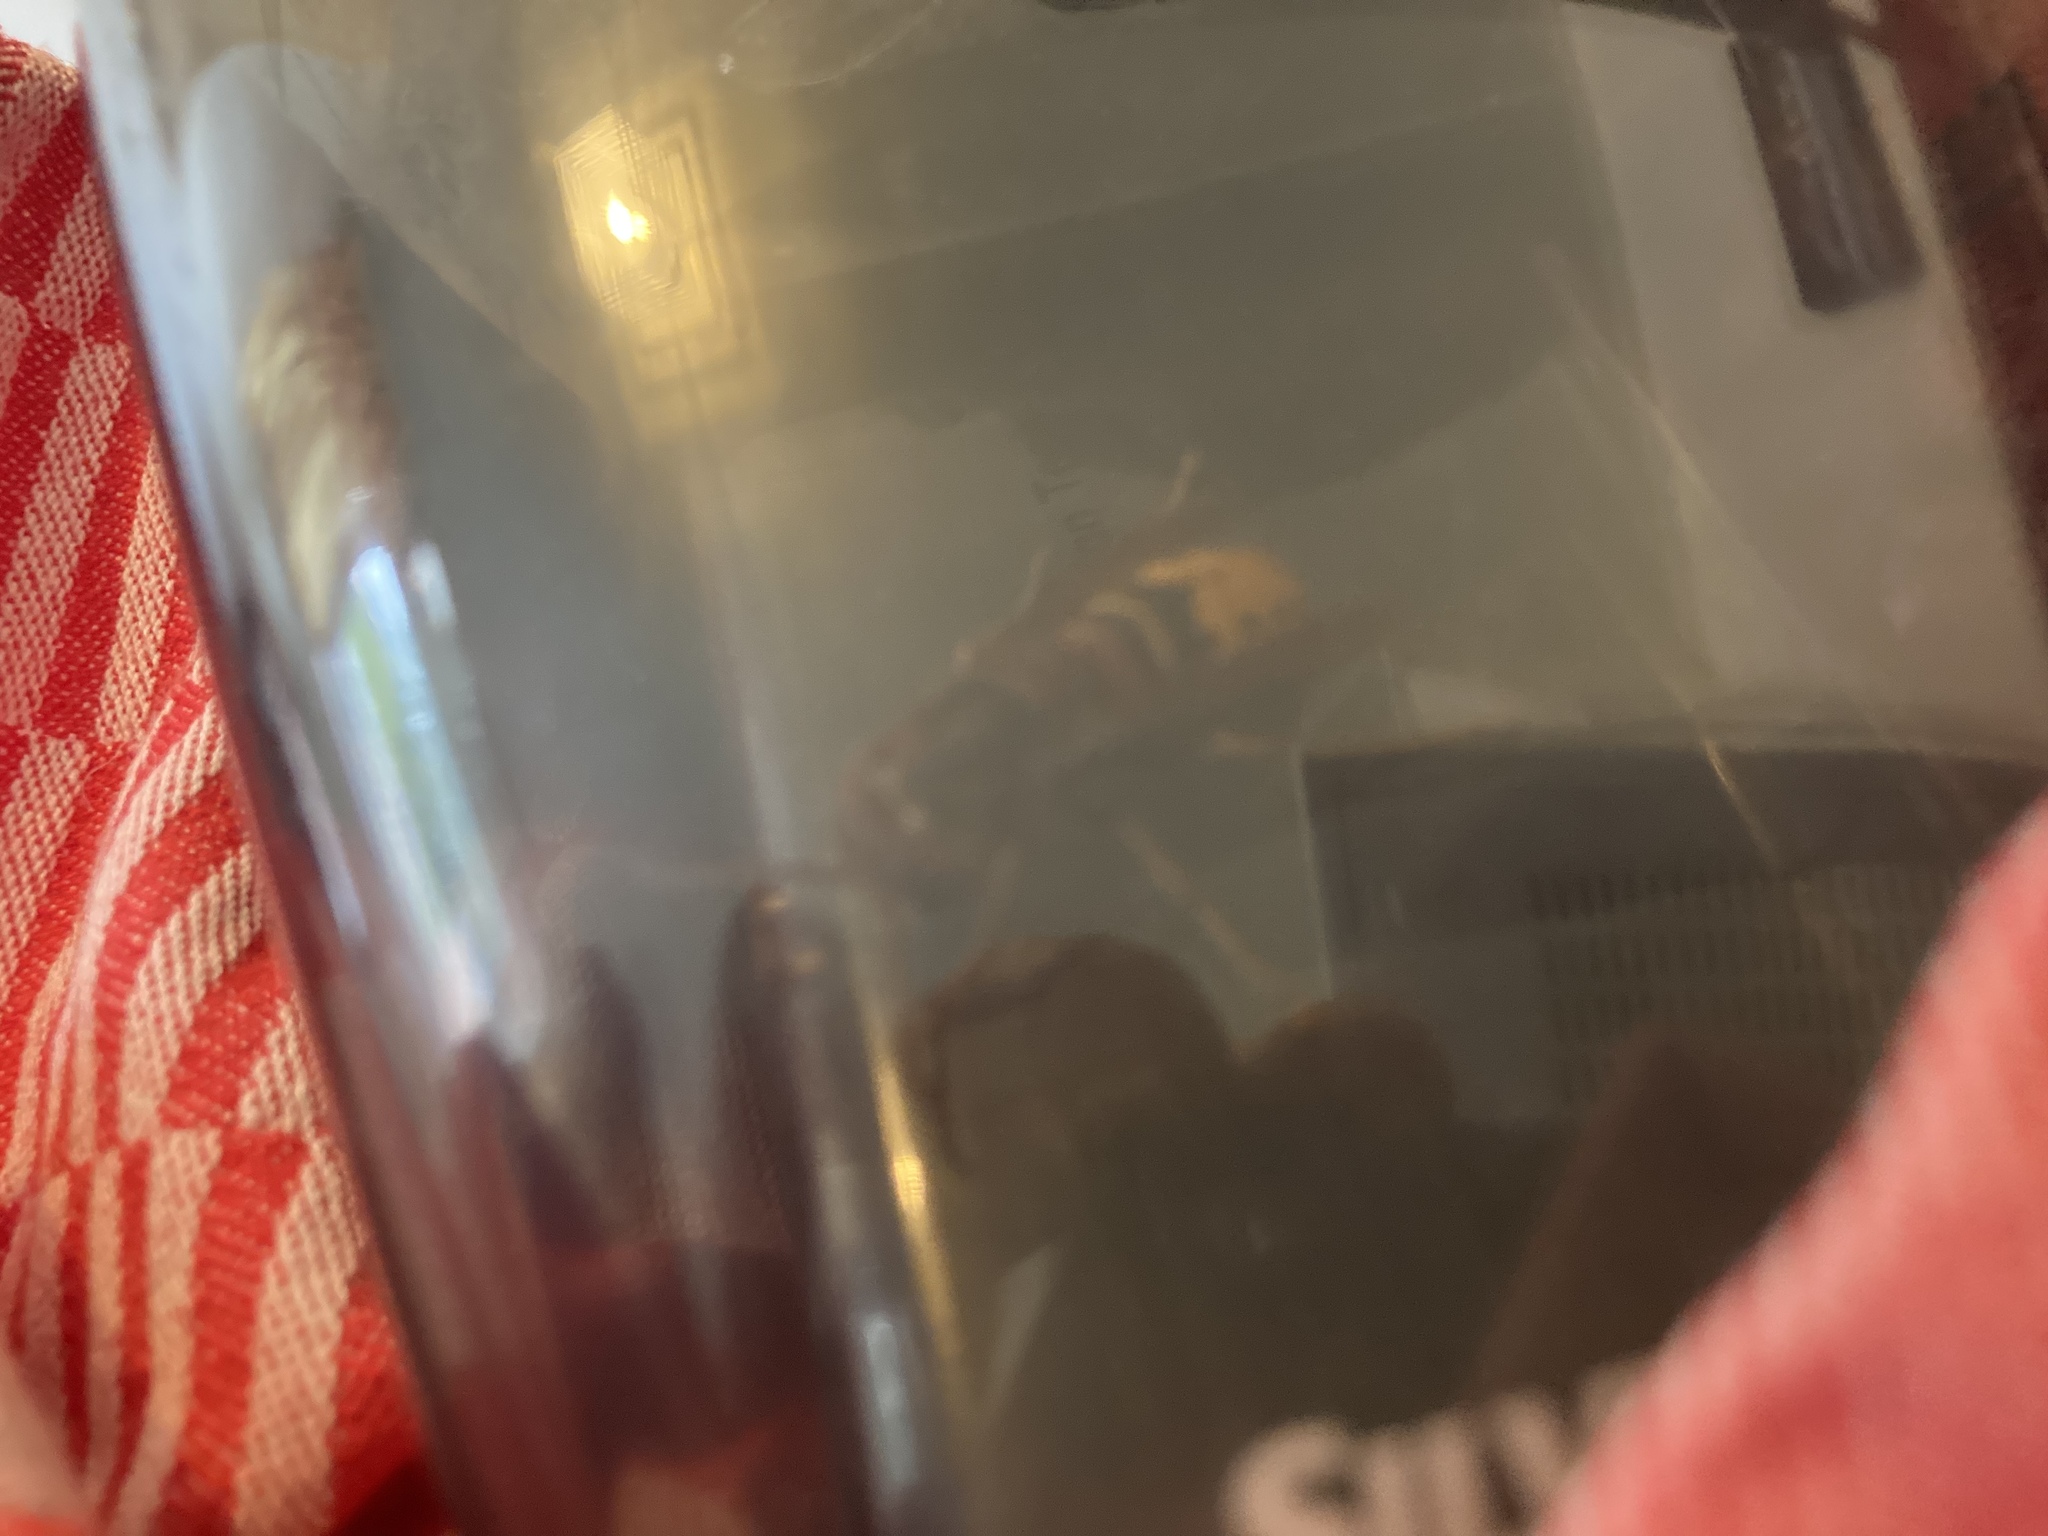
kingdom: Animalia
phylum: Arthropoda
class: Insecta
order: Hymenoptera
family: Vespidae
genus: Vespa
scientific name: Vespa crabro
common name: Hornet
